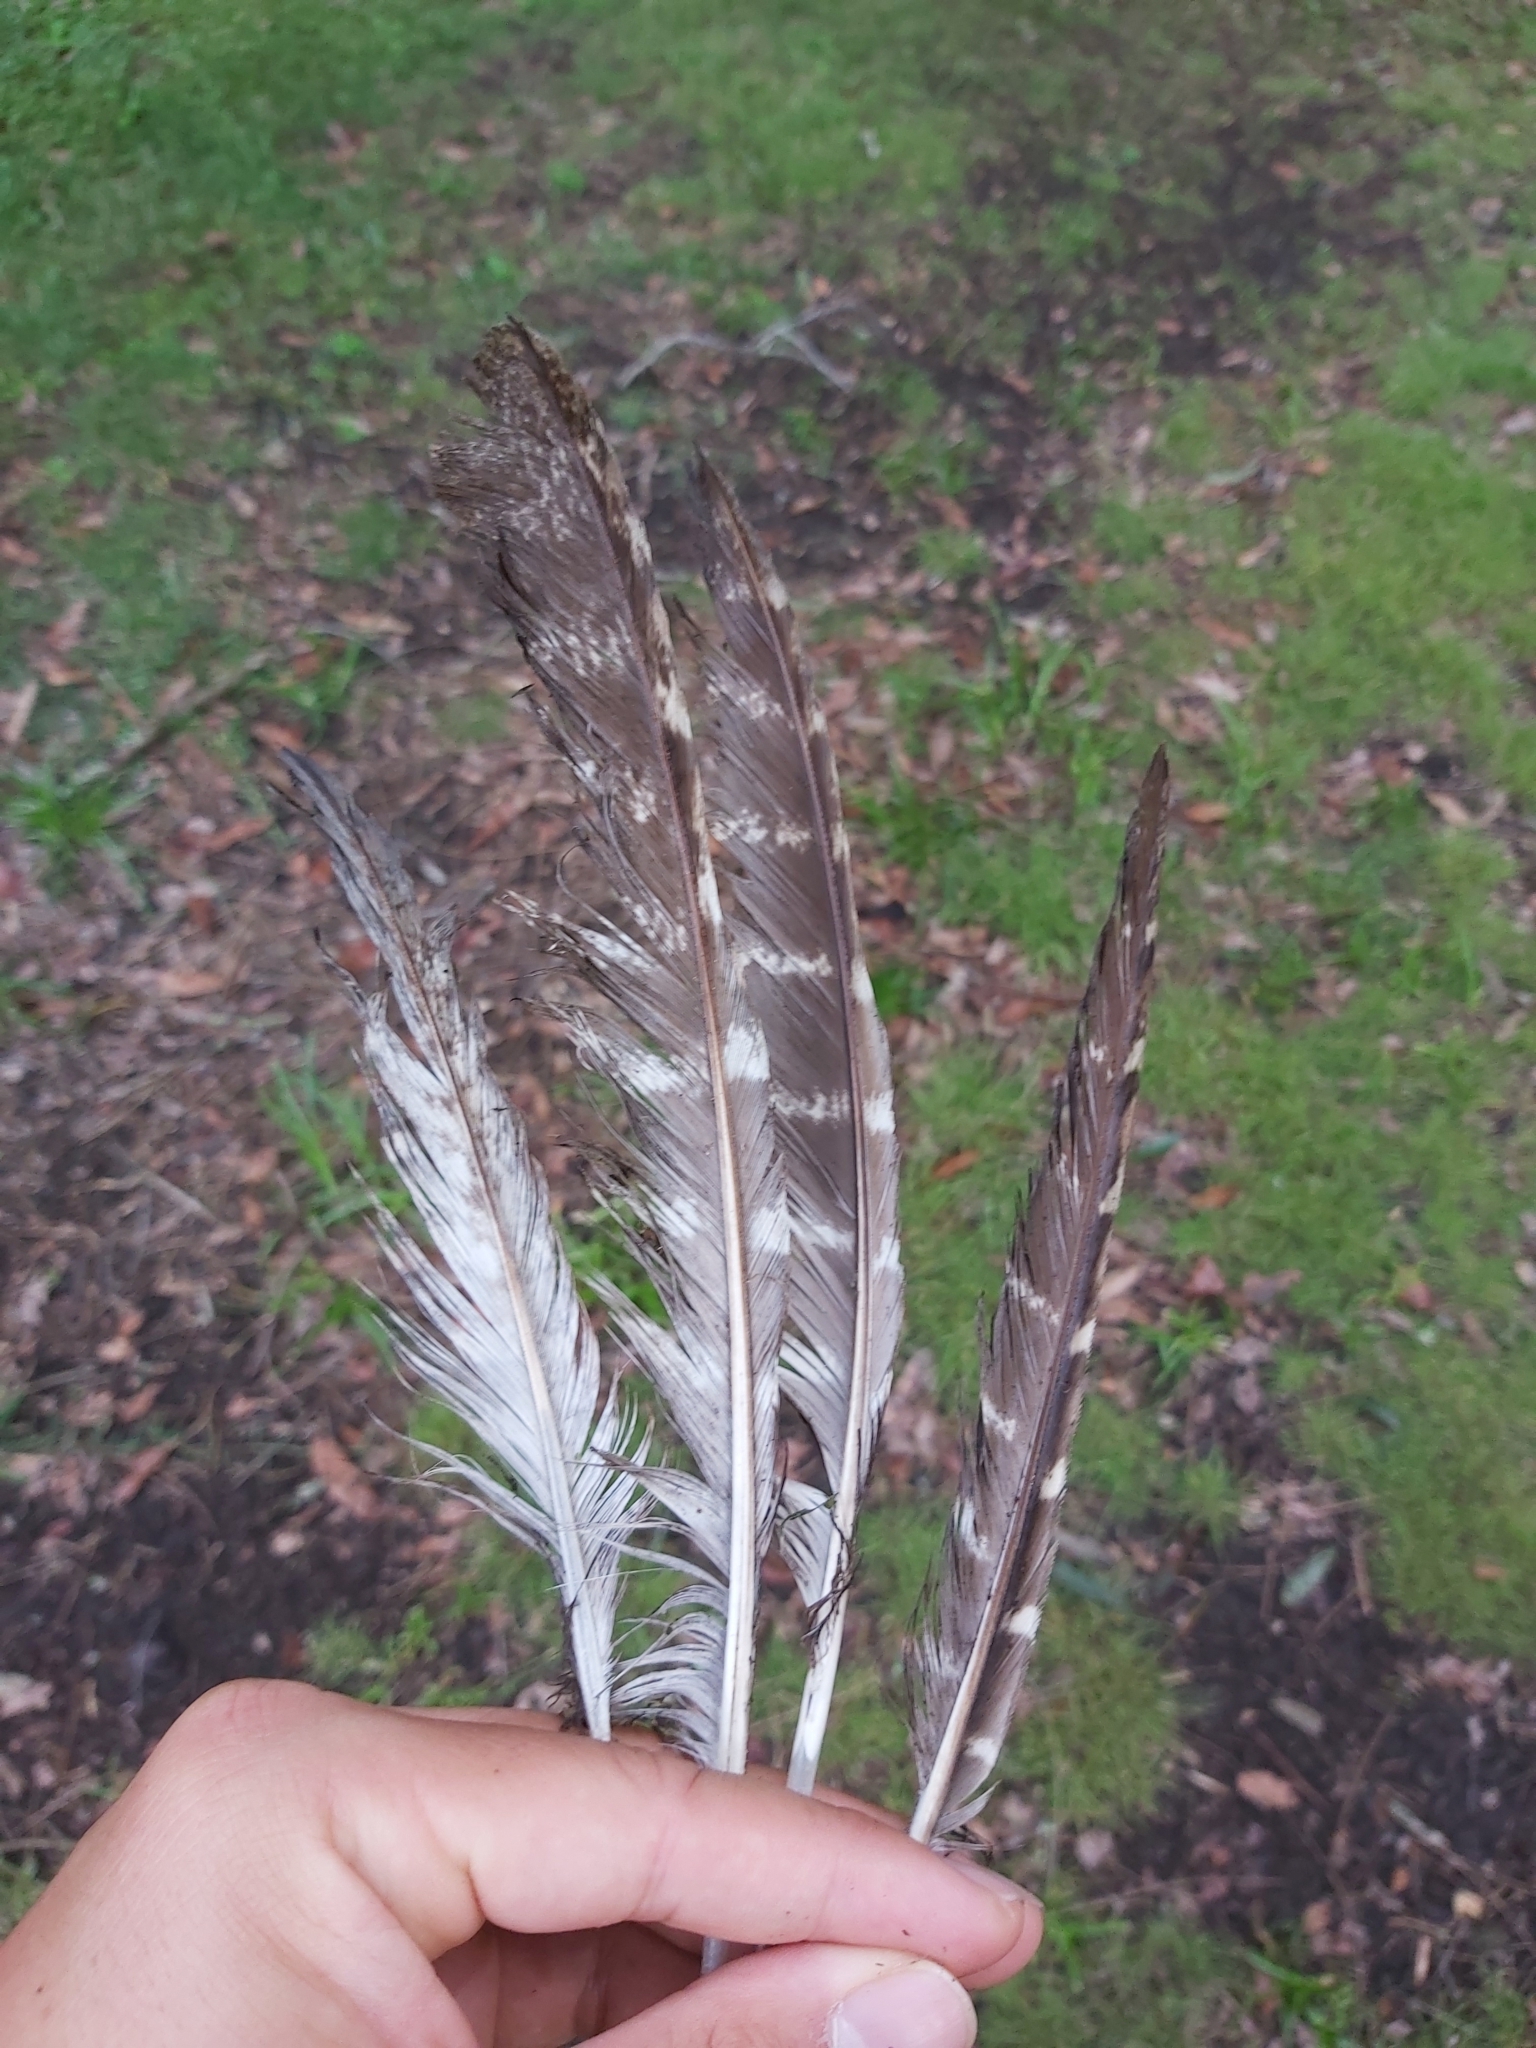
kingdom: Animalia
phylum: Chordata
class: Aves
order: Caprimulgiformes
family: Podargidae
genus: Podargus
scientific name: Podargus strigoides
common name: Tawny frogmouth
